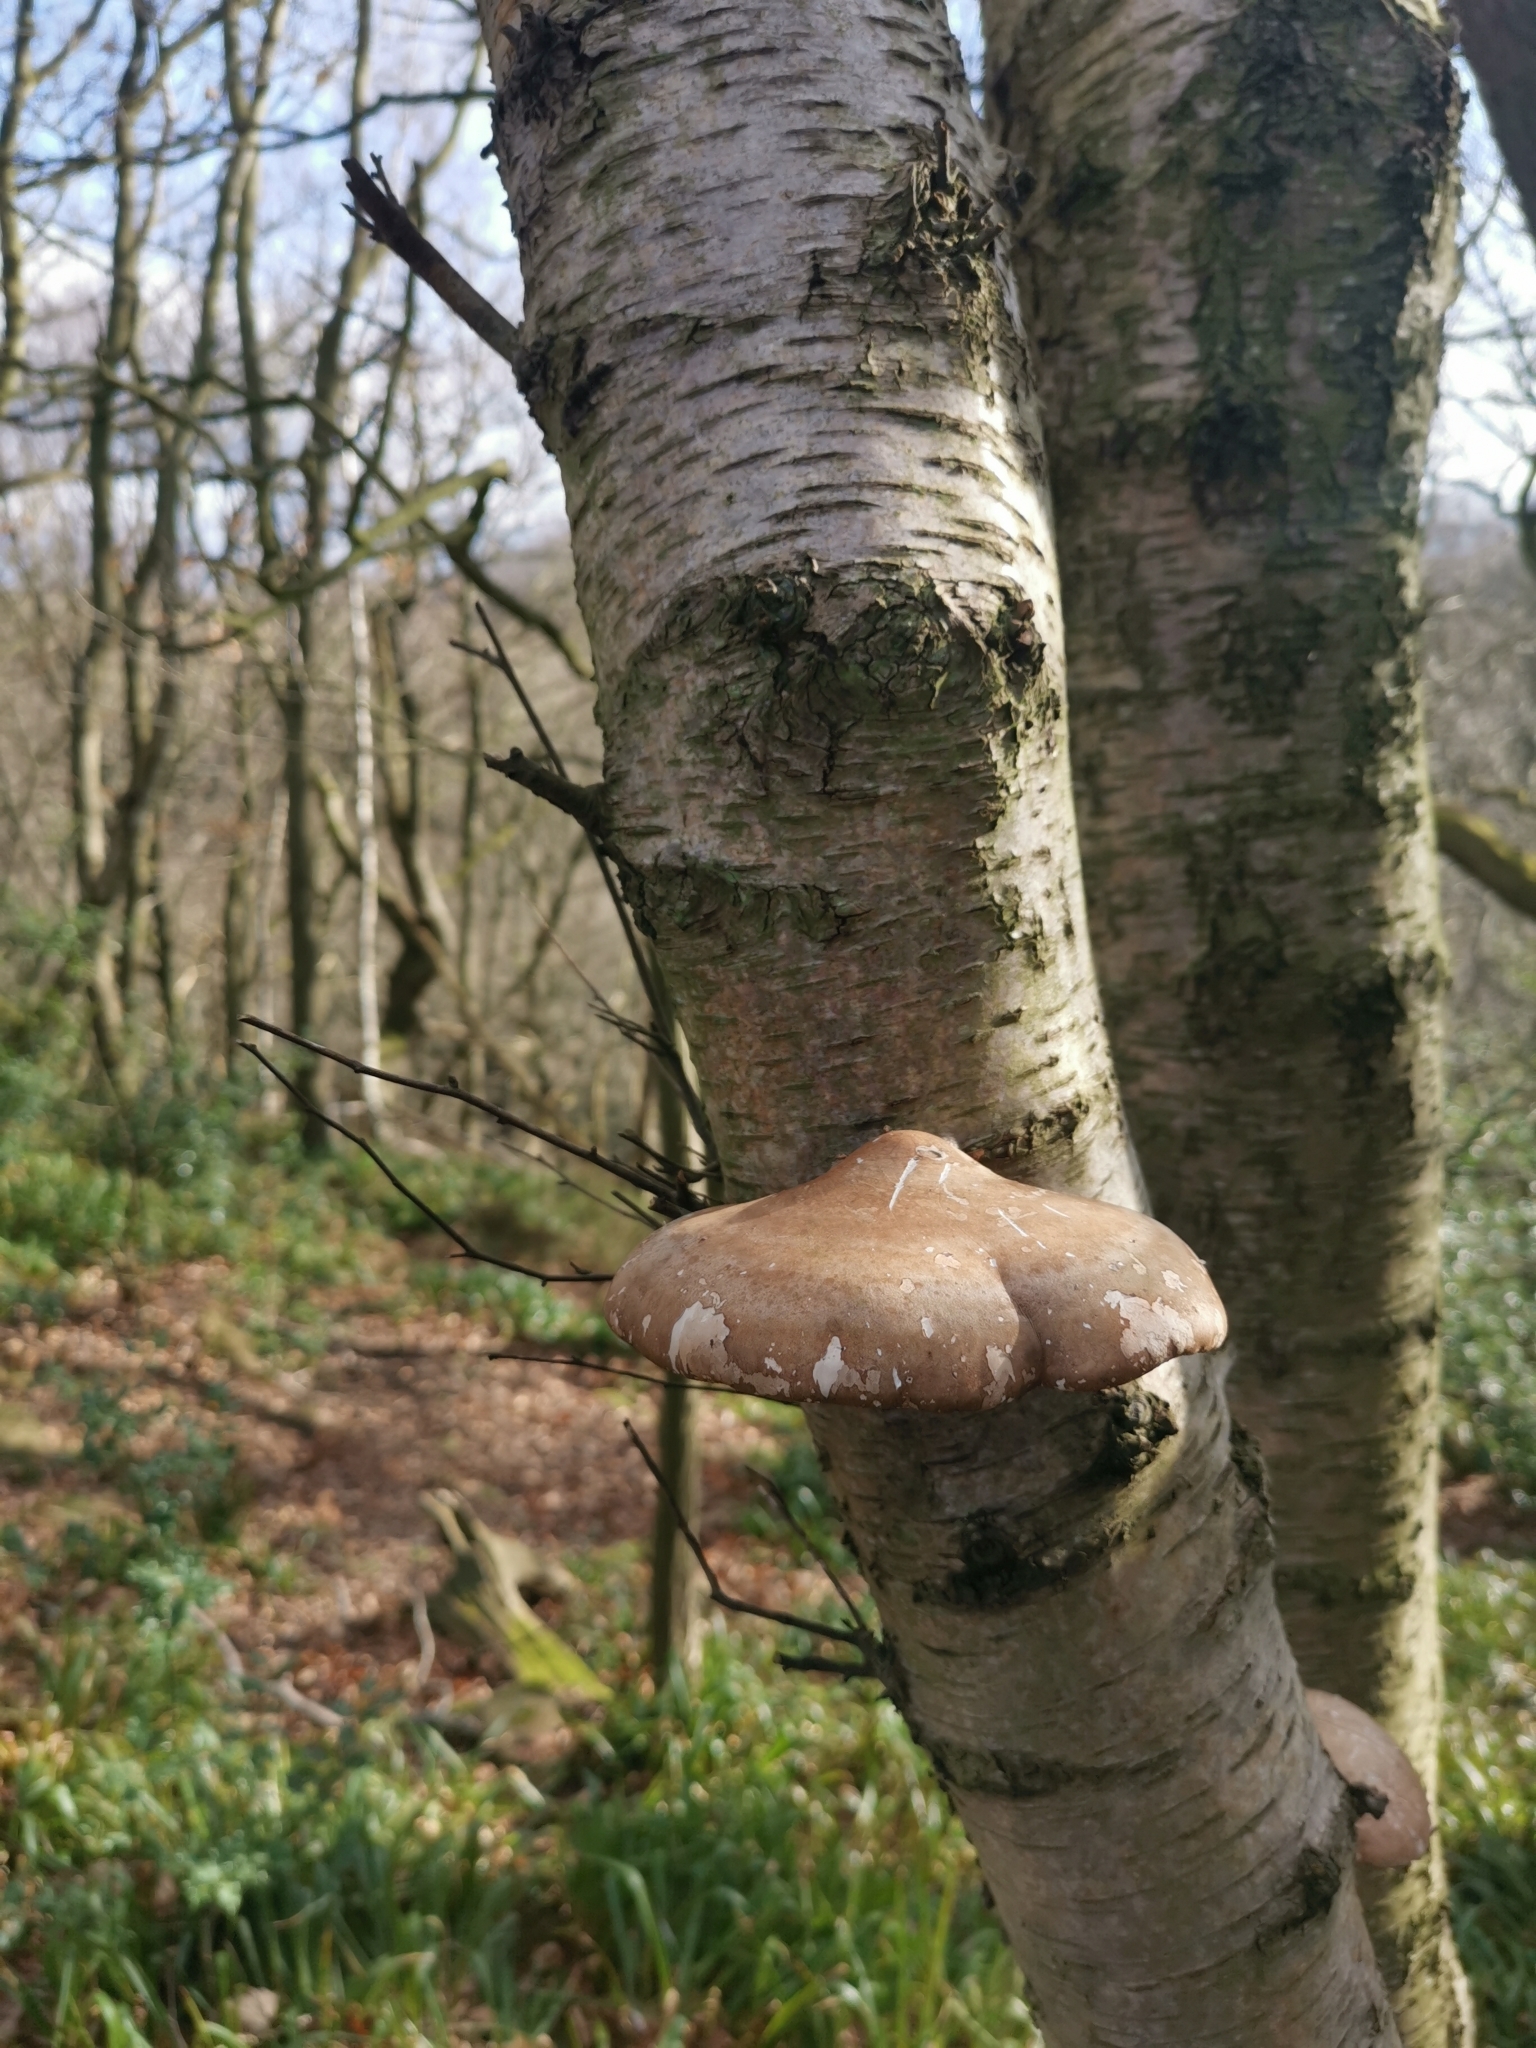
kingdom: Fungi
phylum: Basidiomycota
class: Agaricomycetes
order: Polyporales
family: Fomitopsidaceae
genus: Fomitopsis
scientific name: Fomitopsis betulina
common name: Birch polypore
